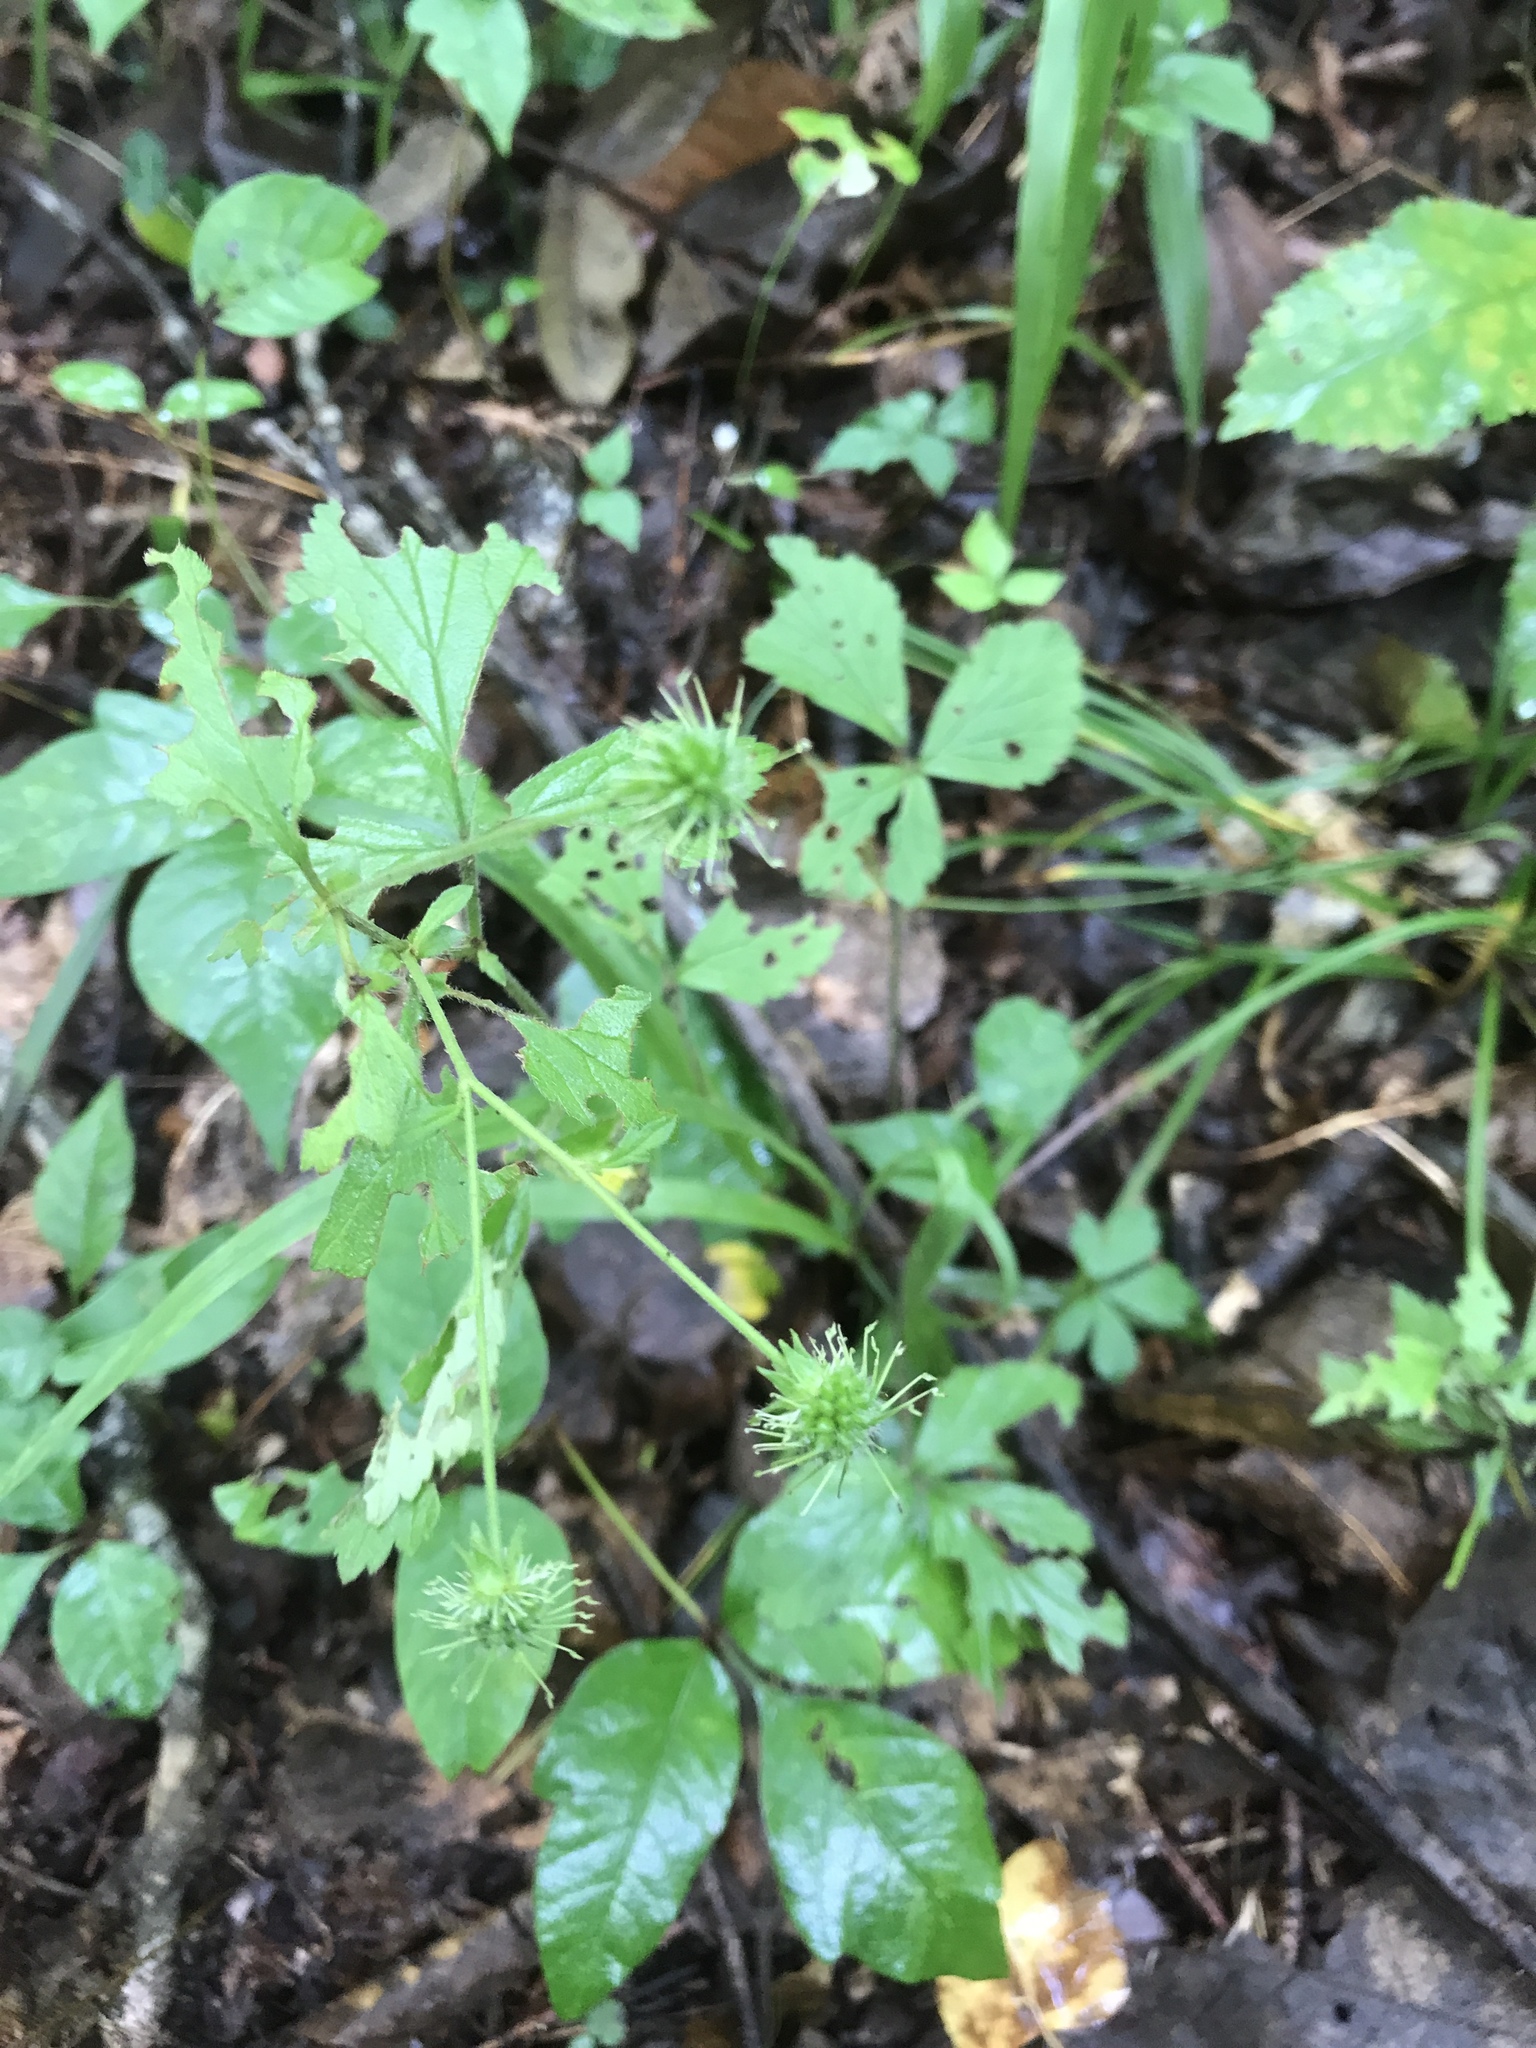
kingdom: Plantae
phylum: Tracheophyta
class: Magnoliopsida
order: Rosales
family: Rosaceae
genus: Geum
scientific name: Geum canadense
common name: White avens
